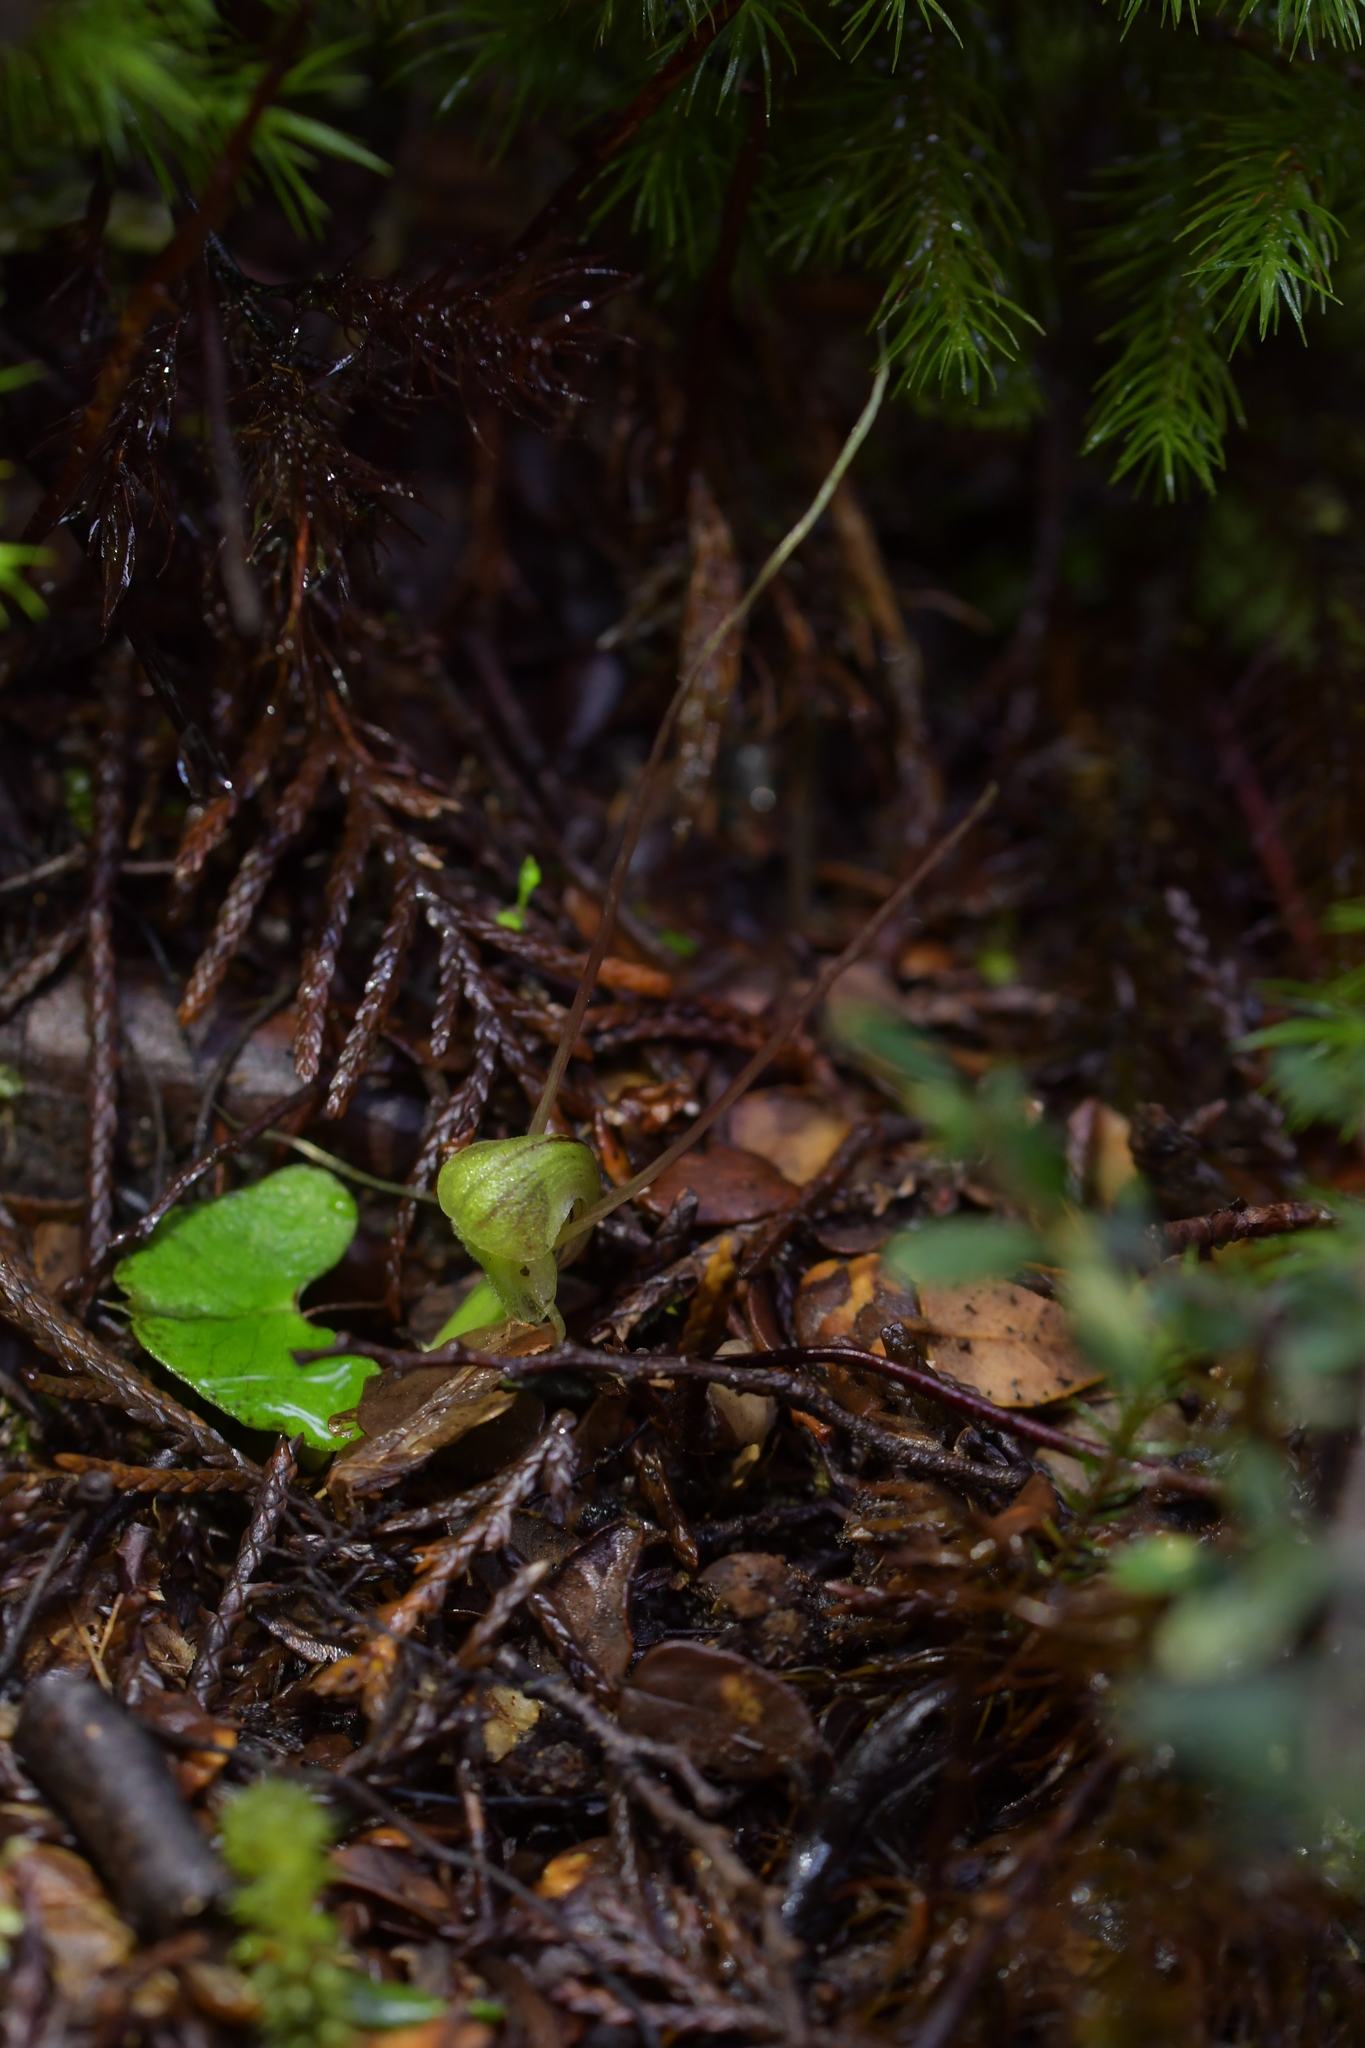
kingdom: Plantae
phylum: Tracheophyta
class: Liliopsida
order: Asparagales
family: Orchidaceae
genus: Corybas
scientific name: Corybas walliae
